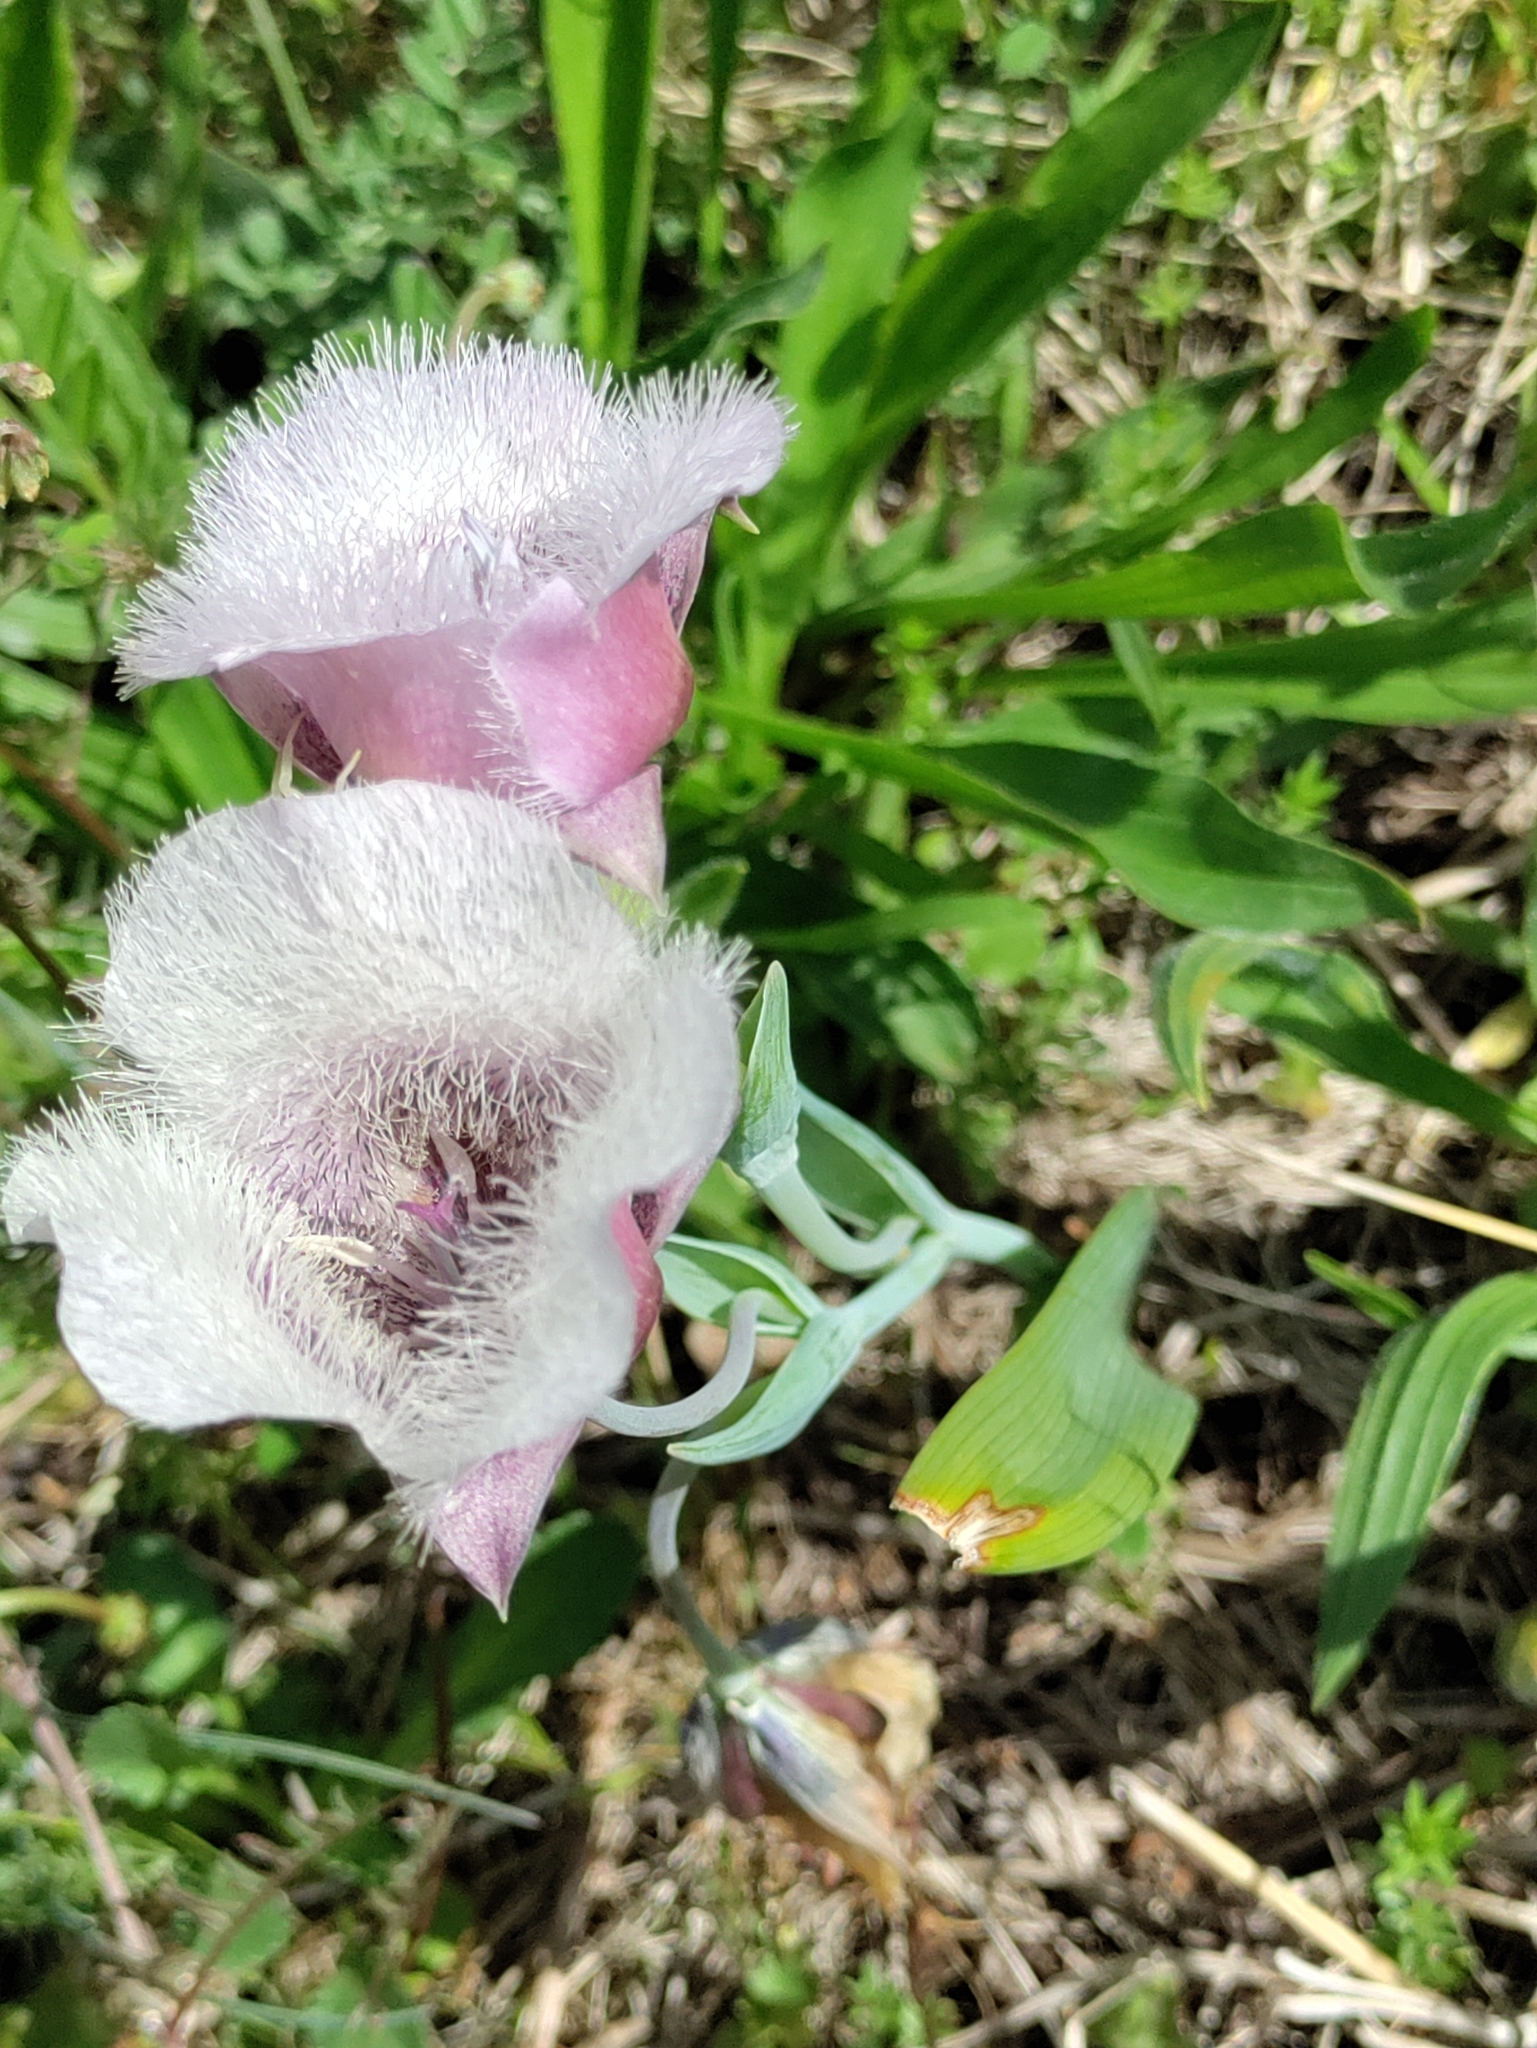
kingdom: Plantae
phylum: Tracheophyta
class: Liliopsida
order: Liliales
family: Liliaceae
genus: Calochortus
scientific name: Calochortus tolmiei
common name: Pussy-ears
